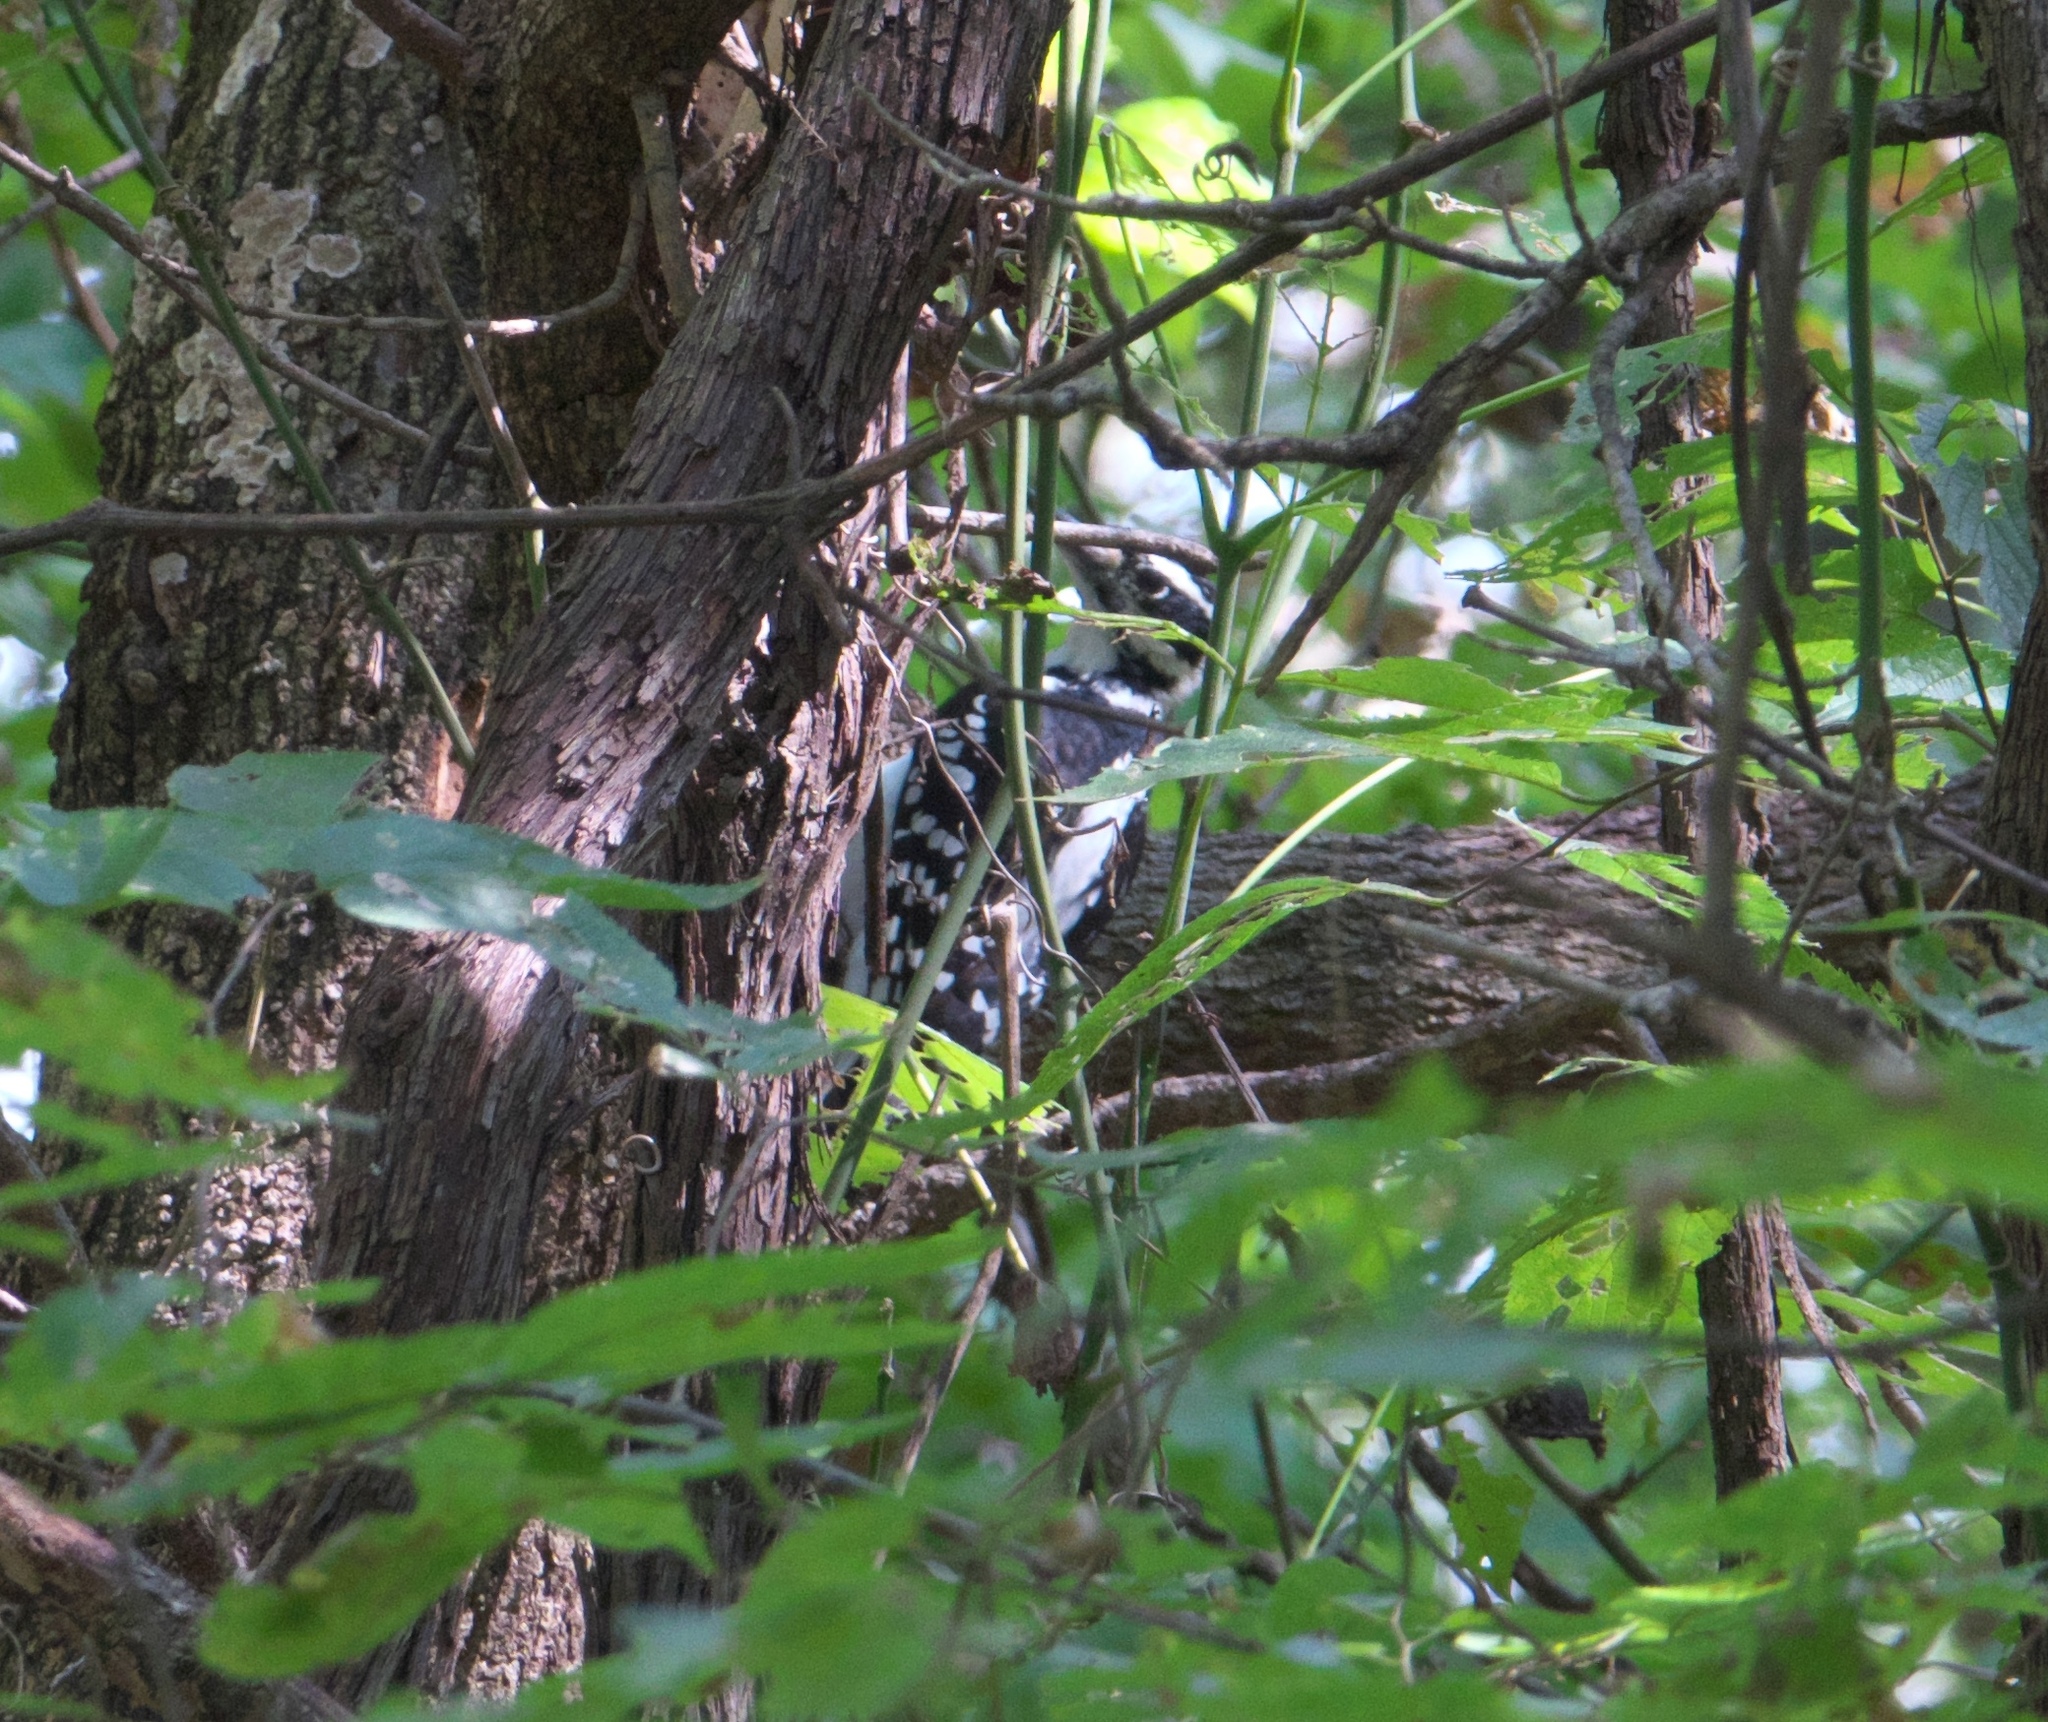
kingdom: Animalia
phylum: Chordata
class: Aves
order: Piciformes
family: Picidae
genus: Leuconotopicus
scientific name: Leuconotopicus villosus
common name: Hairy woodpecker
